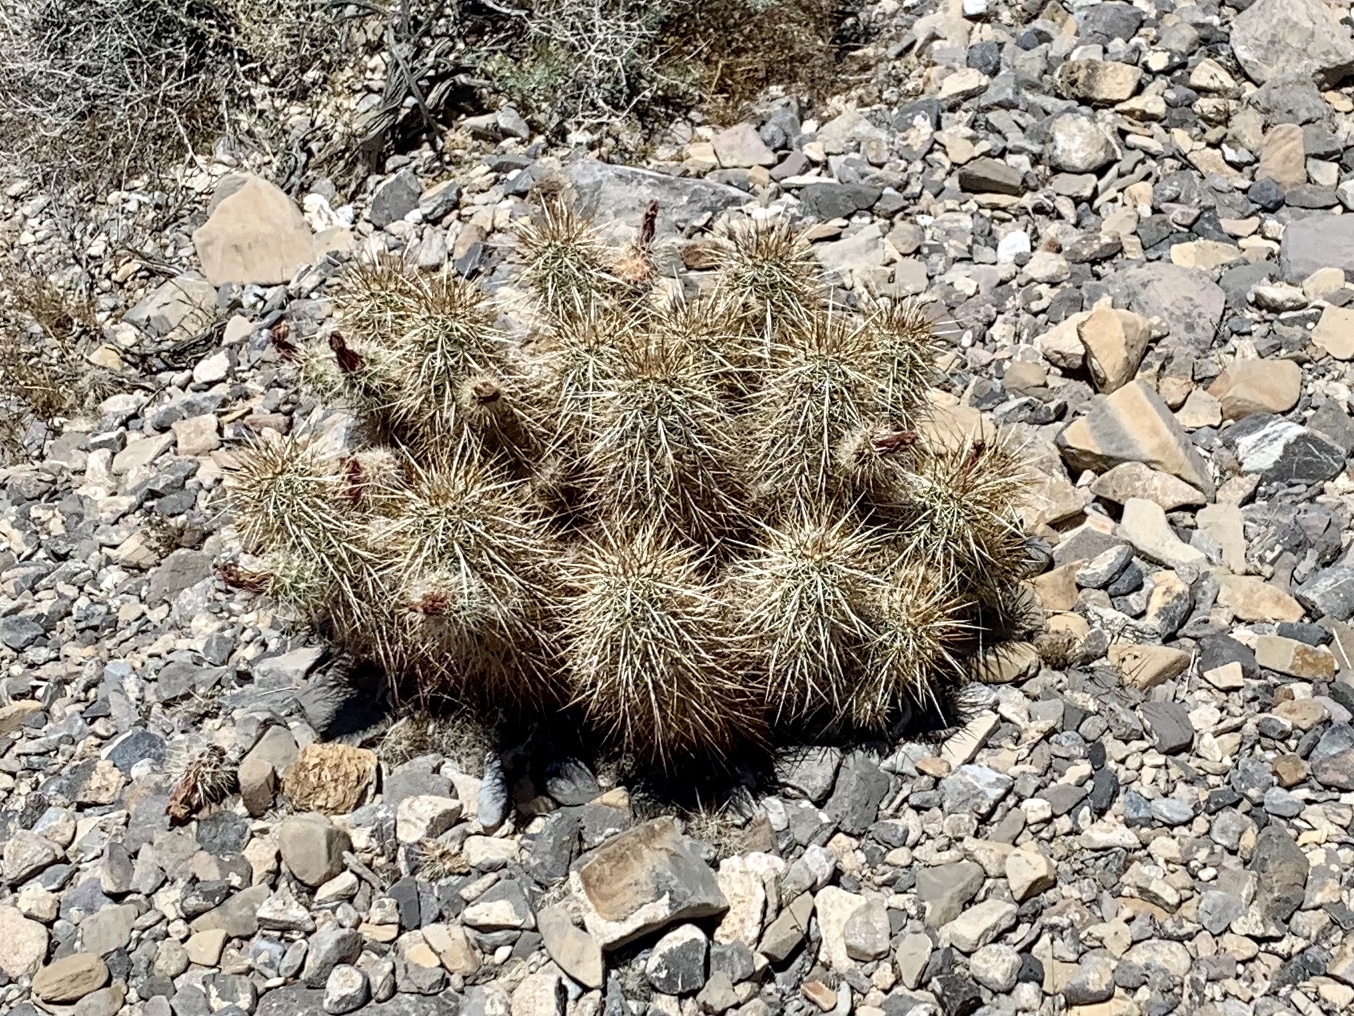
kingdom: Plantae
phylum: Tracheophyta
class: Magnoliopsida
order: Caryophyllales
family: Cactaceae
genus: Echinocereus
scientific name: Echinocereus engelmannii
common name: Engelmann's hedgehog cactus
